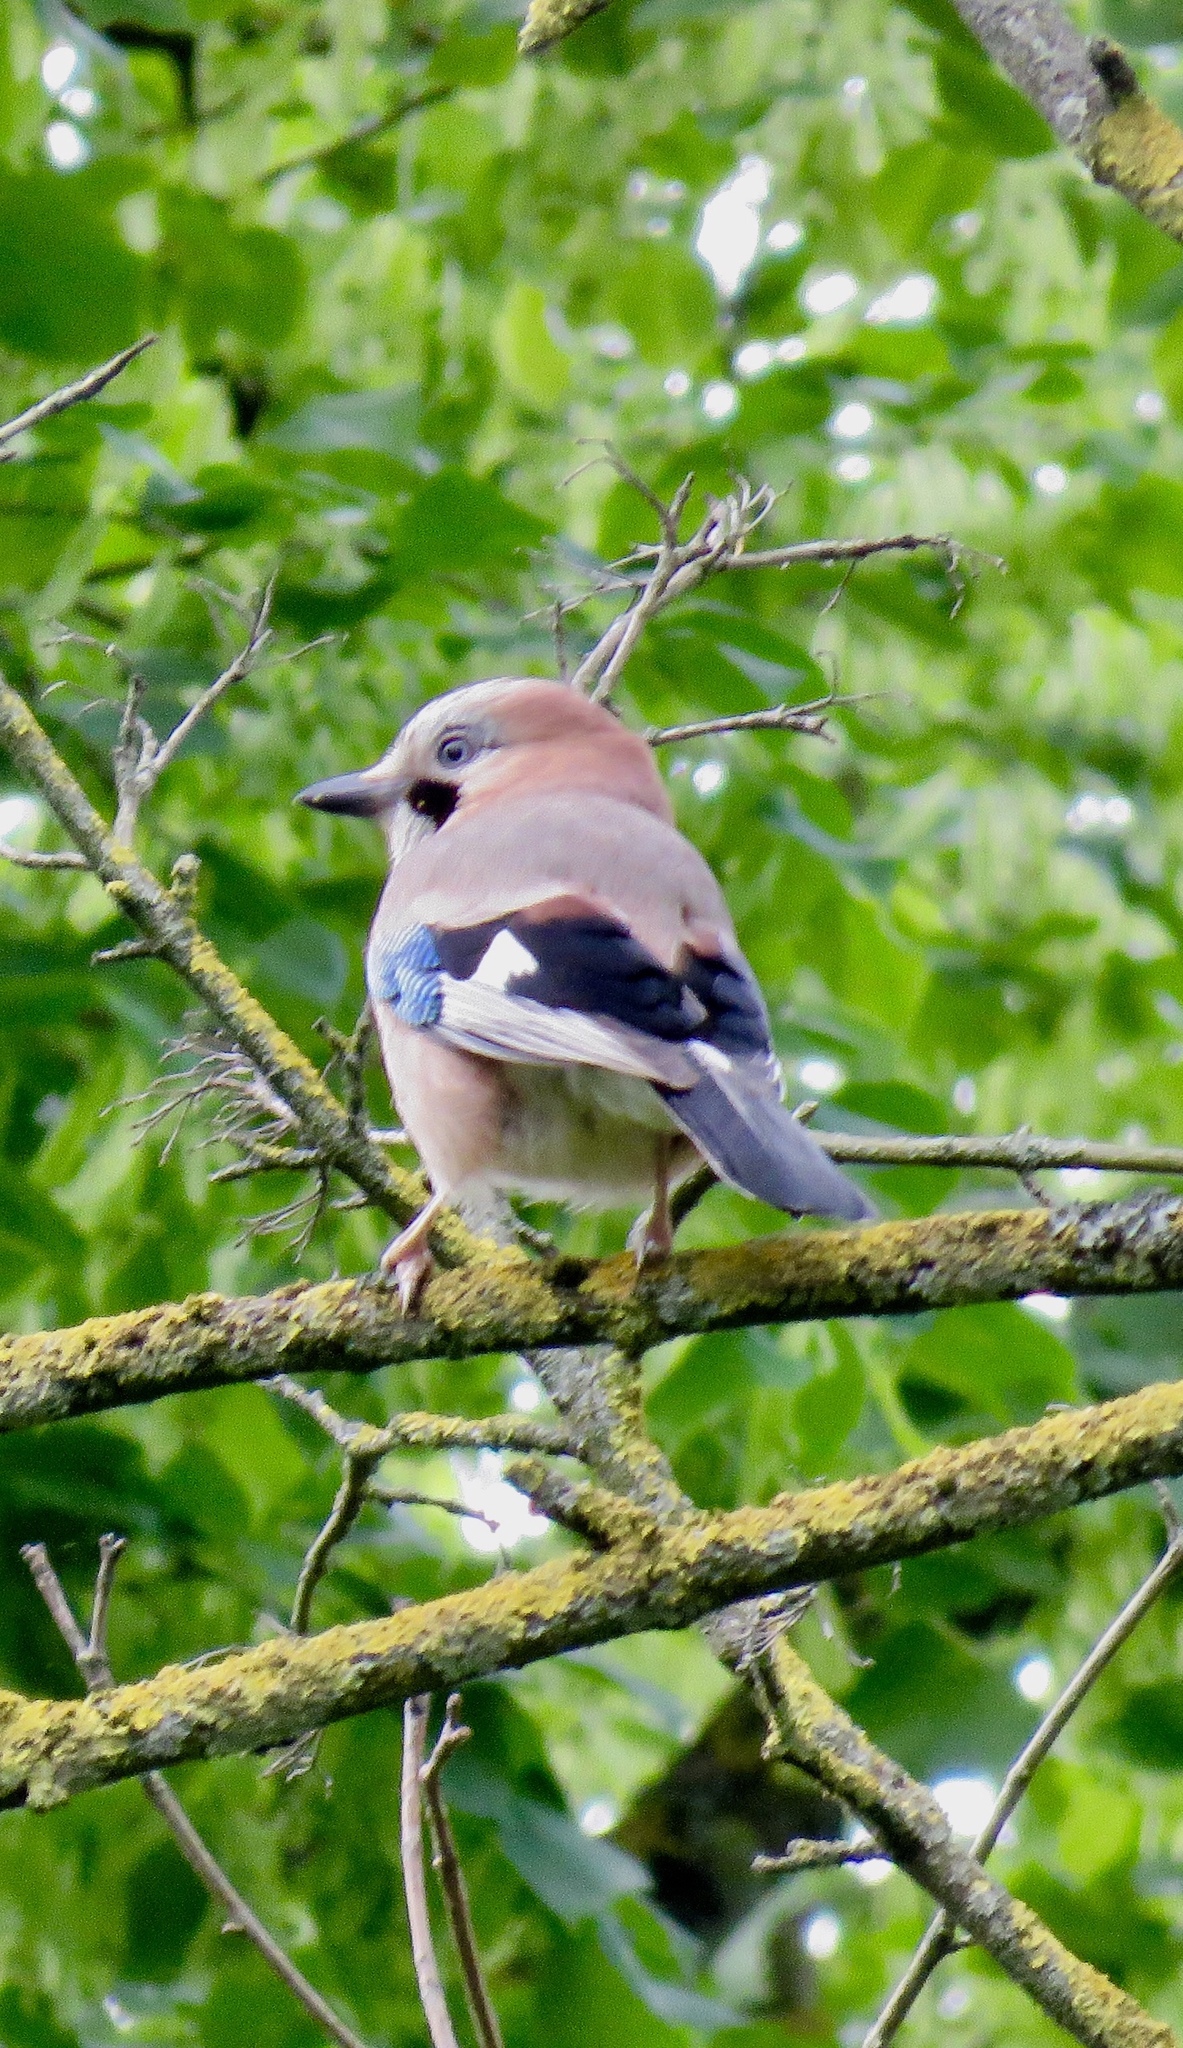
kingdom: Animalia
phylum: Chordata
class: Aves
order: Passeriformes
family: Corvidae
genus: Garrulus
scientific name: Garrulus glandarius
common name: Eurasian jay
